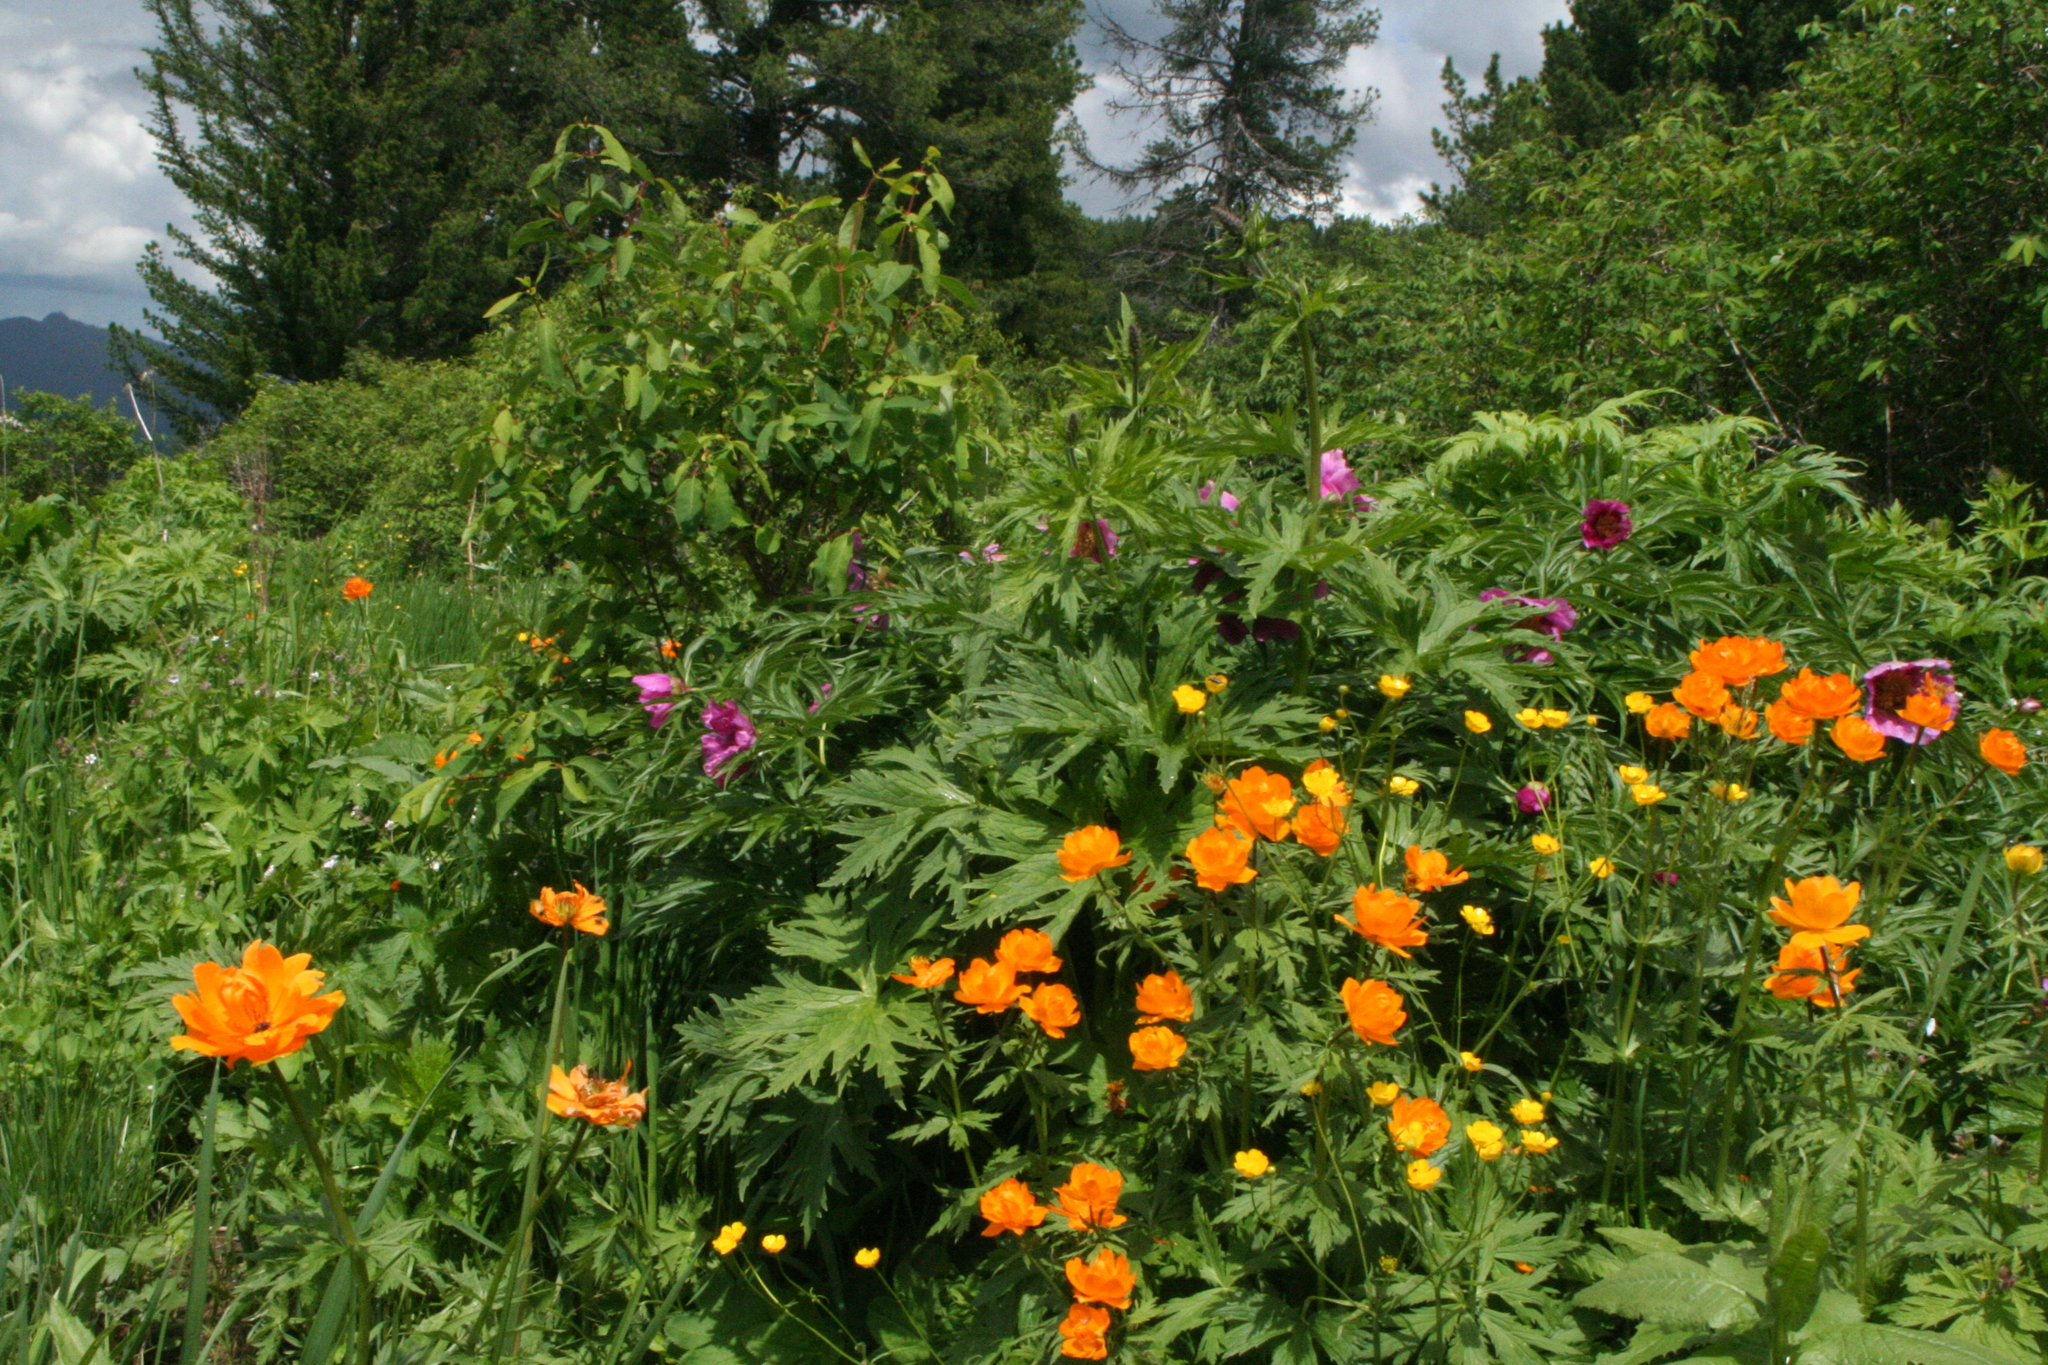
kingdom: Plantae
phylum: Tracheophyta
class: Magnoliopsida
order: Dipsacales
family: Caprifoliaceae
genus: Lonicera
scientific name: Lonicera caerulea
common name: Blue honeysuckle
